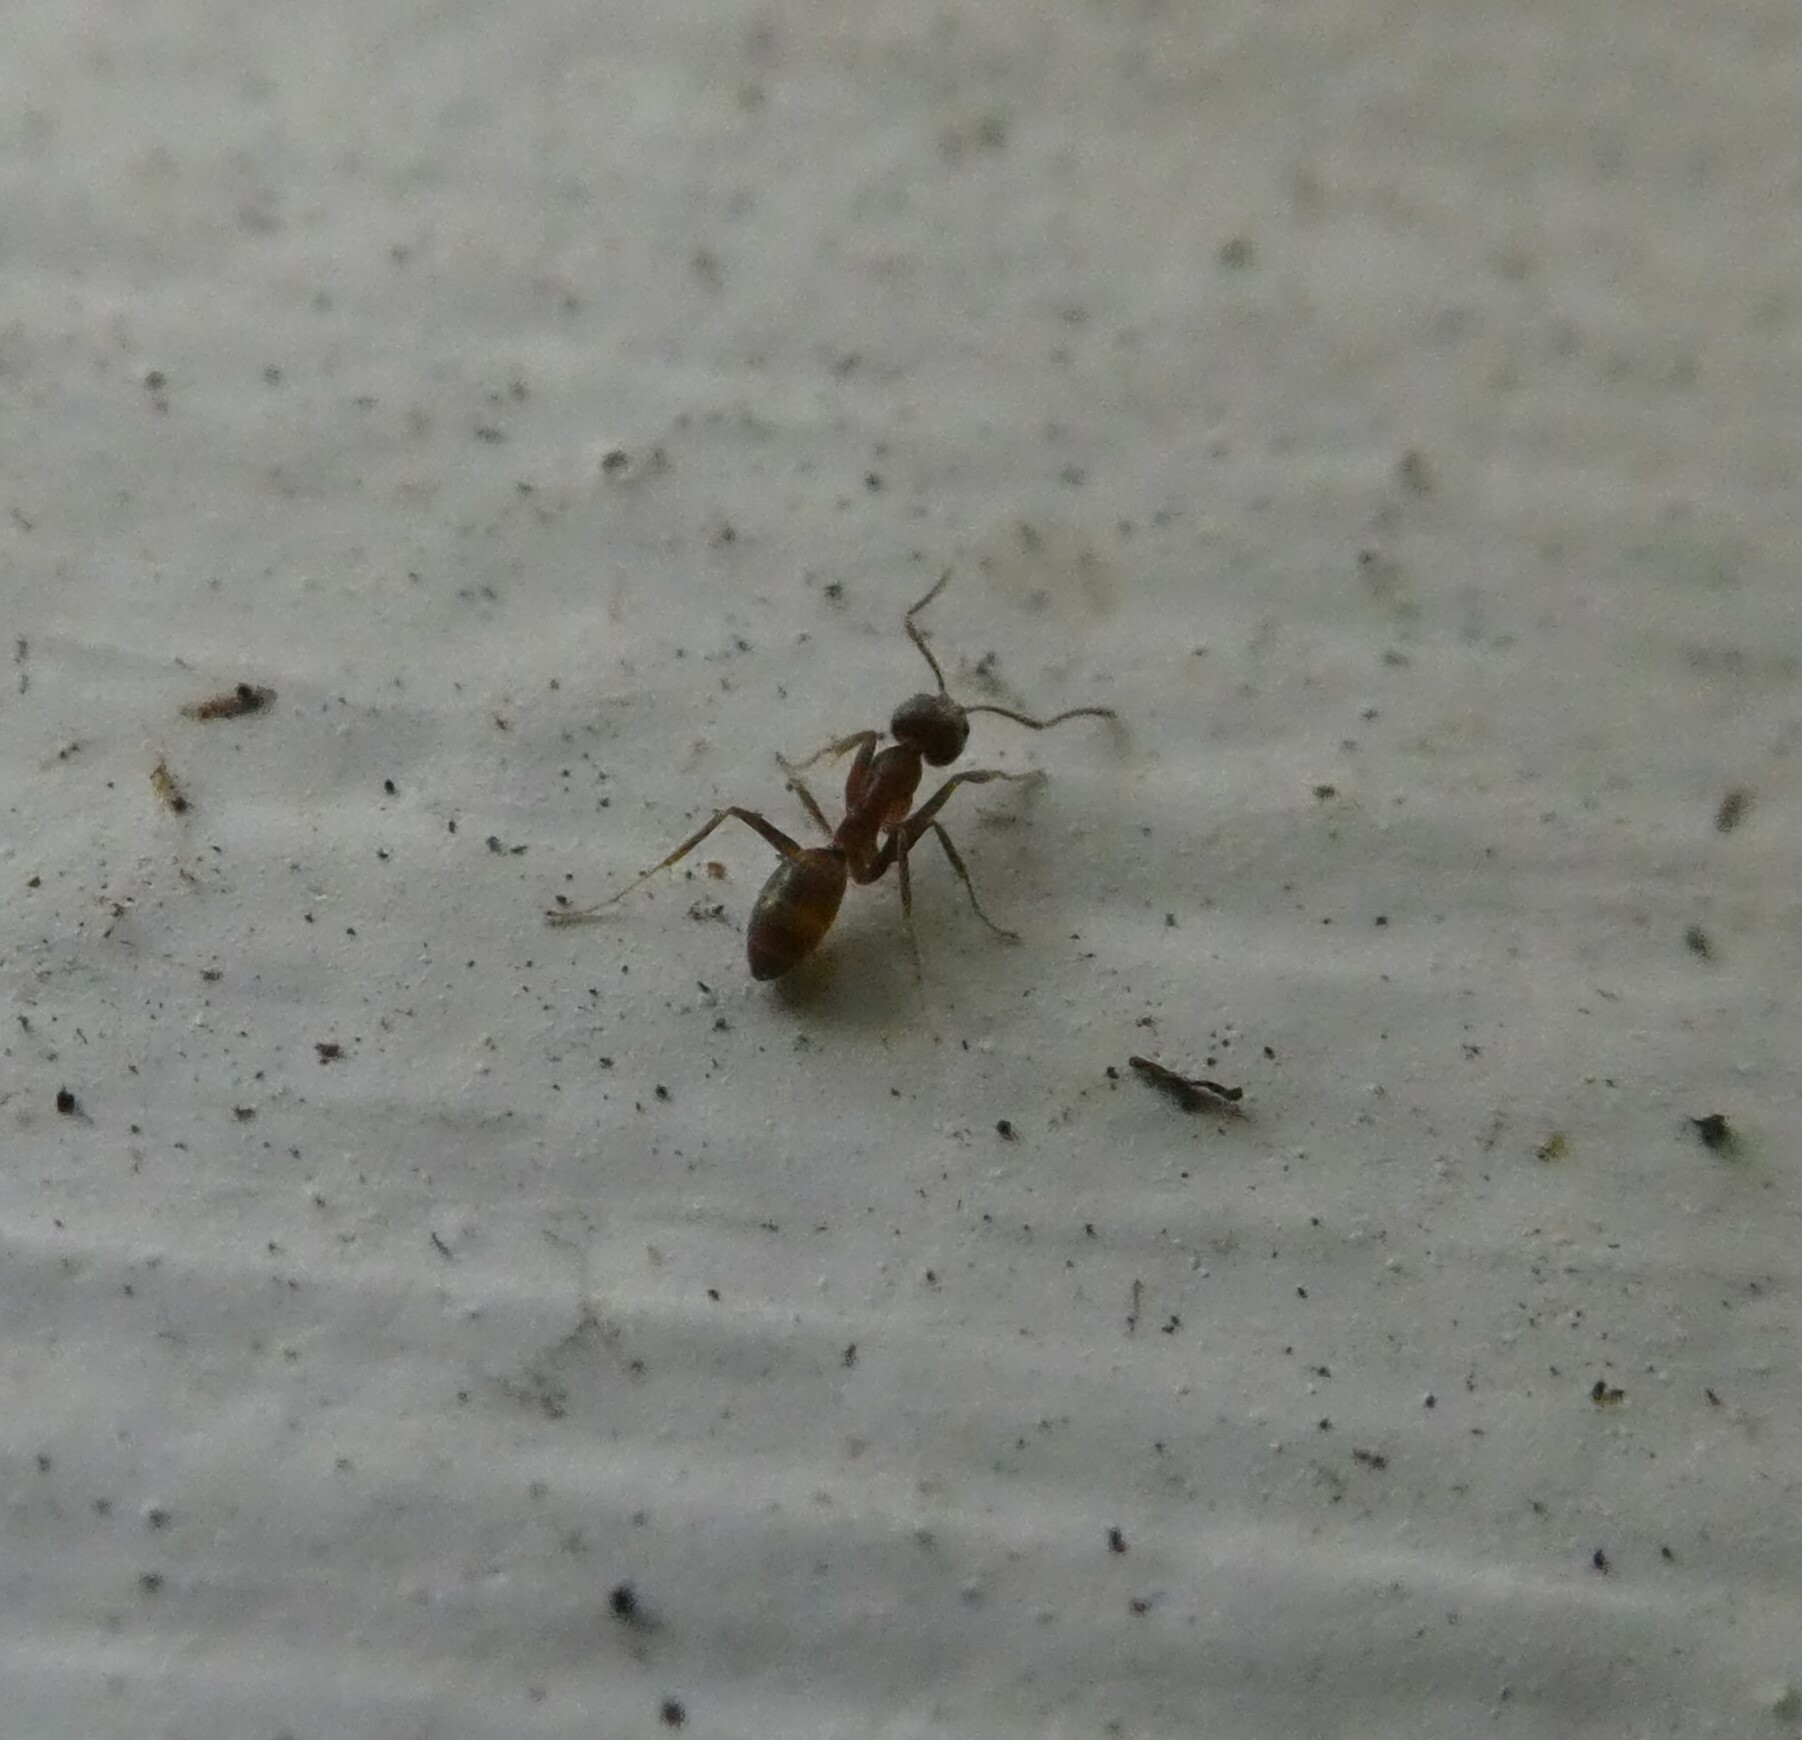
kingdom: Animalia
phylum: Arthropoda
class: Insecta
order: Hymenoptera
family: Formicidae
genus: Linepithema
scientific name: Linepithema humile
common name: Argentine ant
